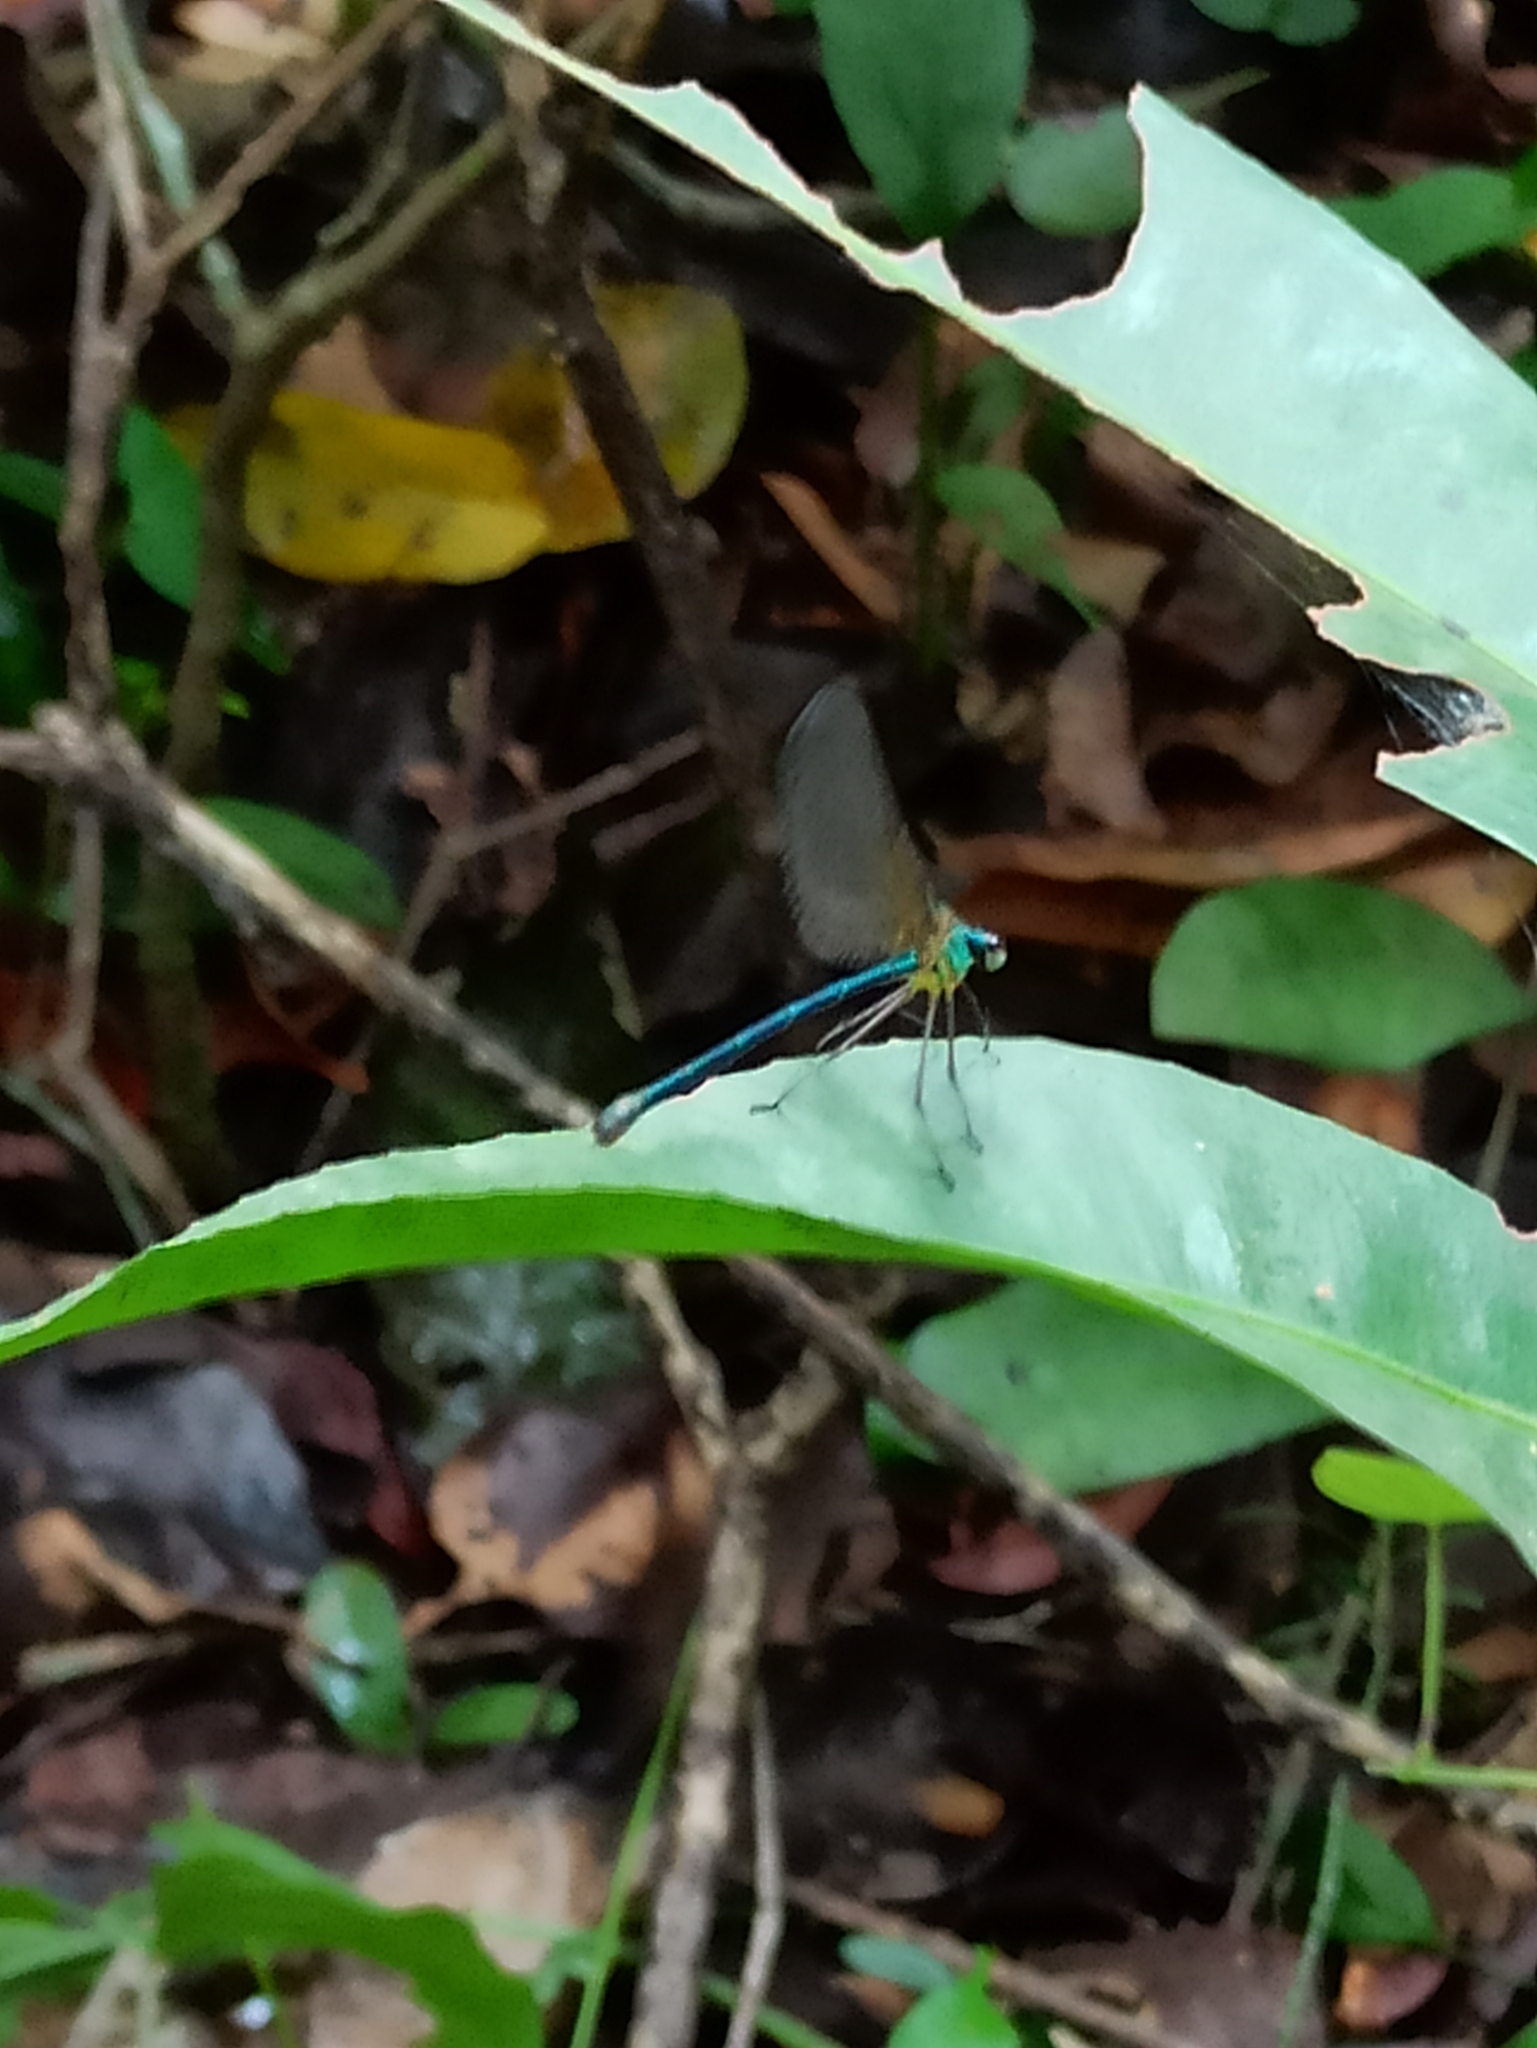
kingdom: Animalia
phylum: Arthropoda
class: Insecta
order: Odonata
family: Calopterygidae
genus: Vestalis
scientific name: Vestalis gracilis
